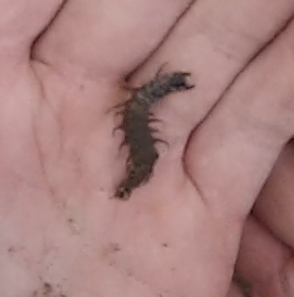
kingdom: Animalia
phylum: Arthropoda
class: Insecta
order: Megaloptera
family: Corydalidae
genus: Archichauliodes
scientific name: Archichauliodes diversus
